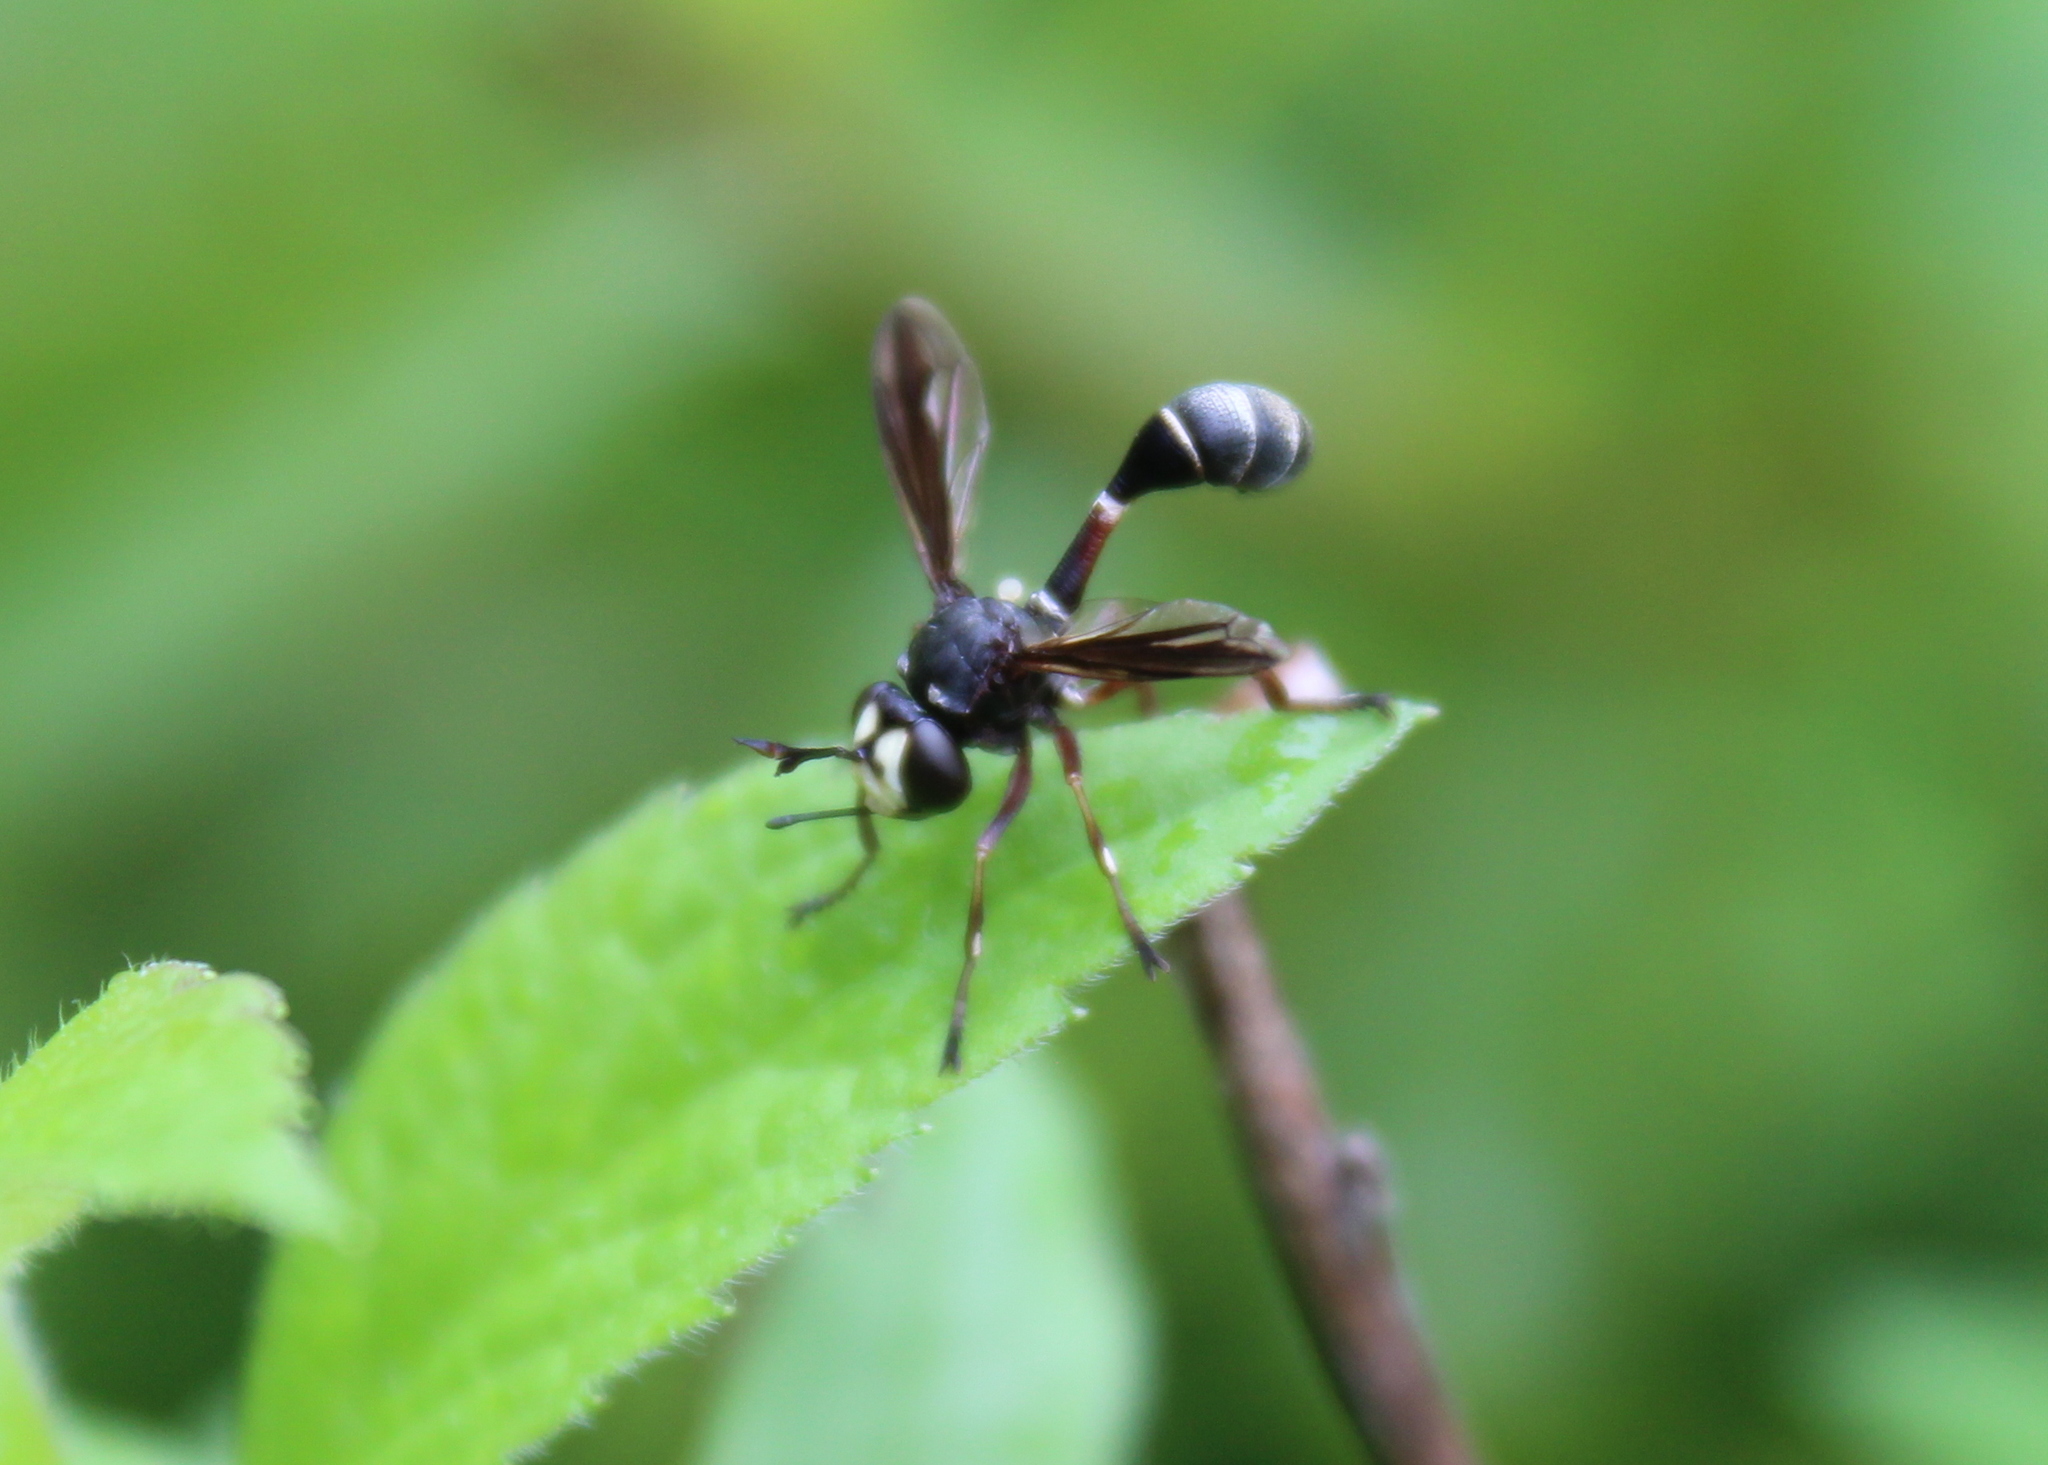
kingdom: Animalia
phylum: Arthropoda
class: Insecta
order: Diptera
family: Conopidae
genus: Physocephala
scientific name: Physocephala furcillata
